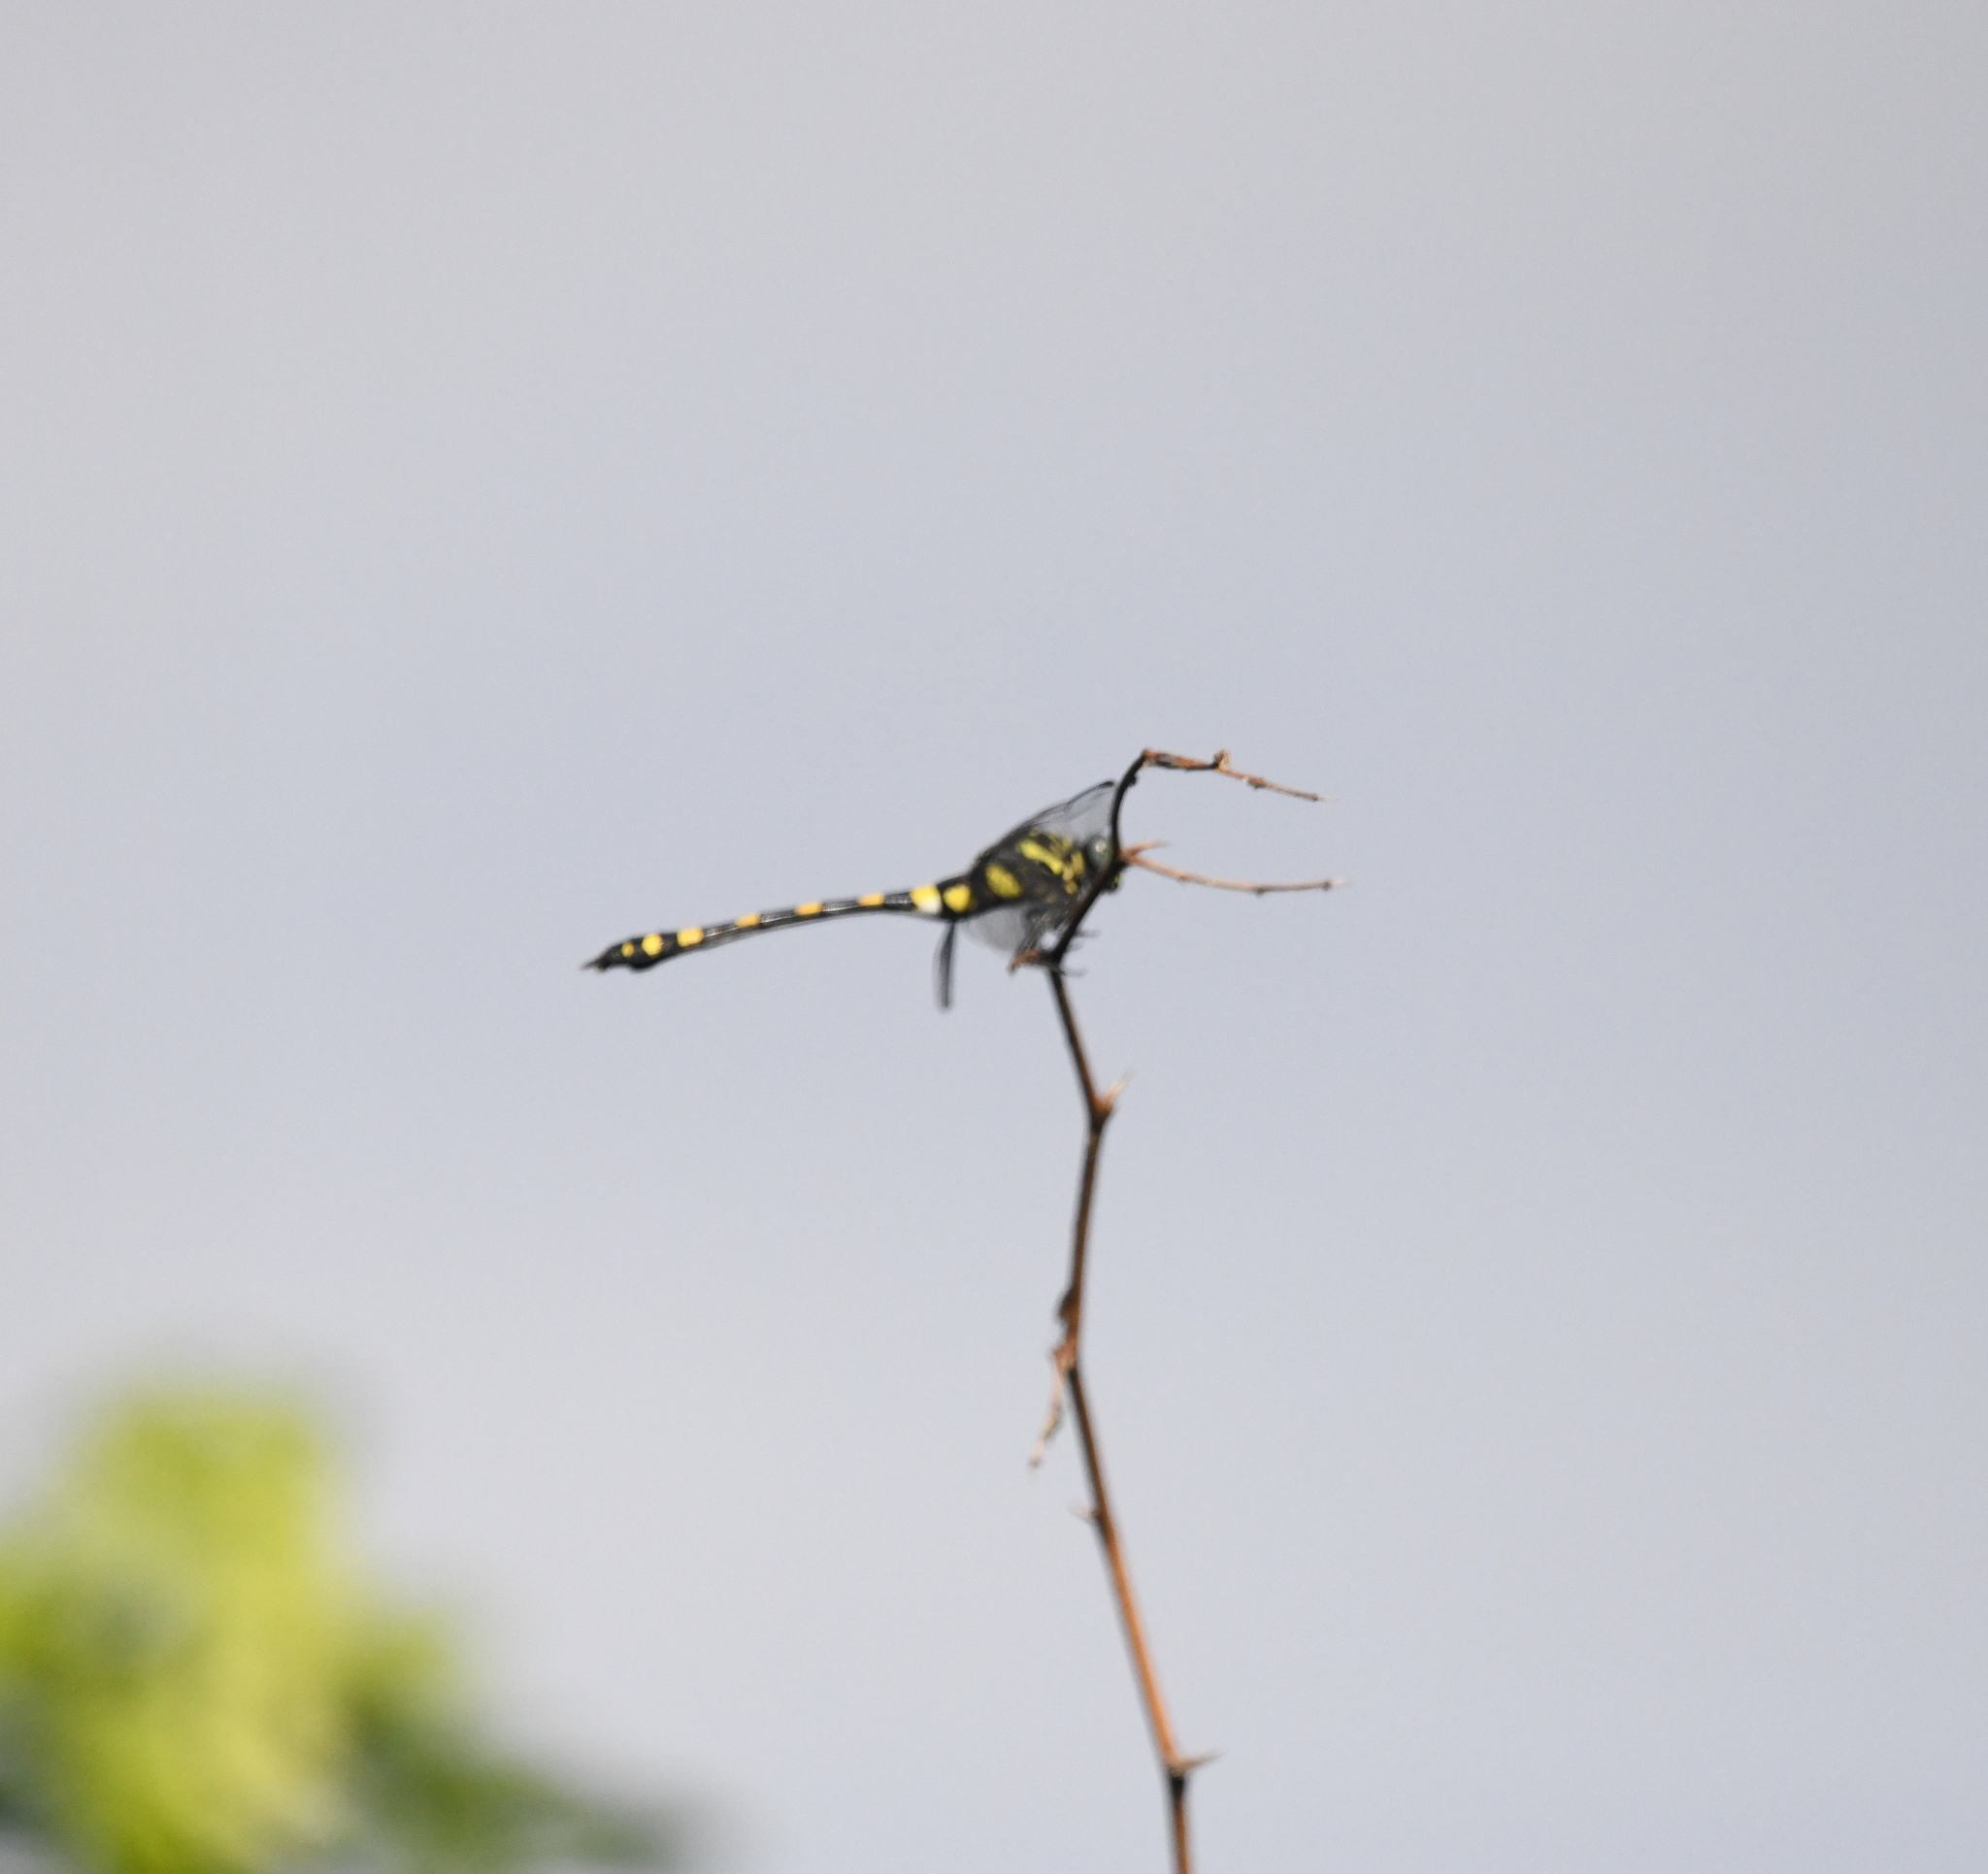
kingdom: Animalia
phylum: Arthropoda
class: Insecta
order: Odonata
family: Gomphidae
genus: Ictinogomphus
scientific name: Ictinogomphus rapax
